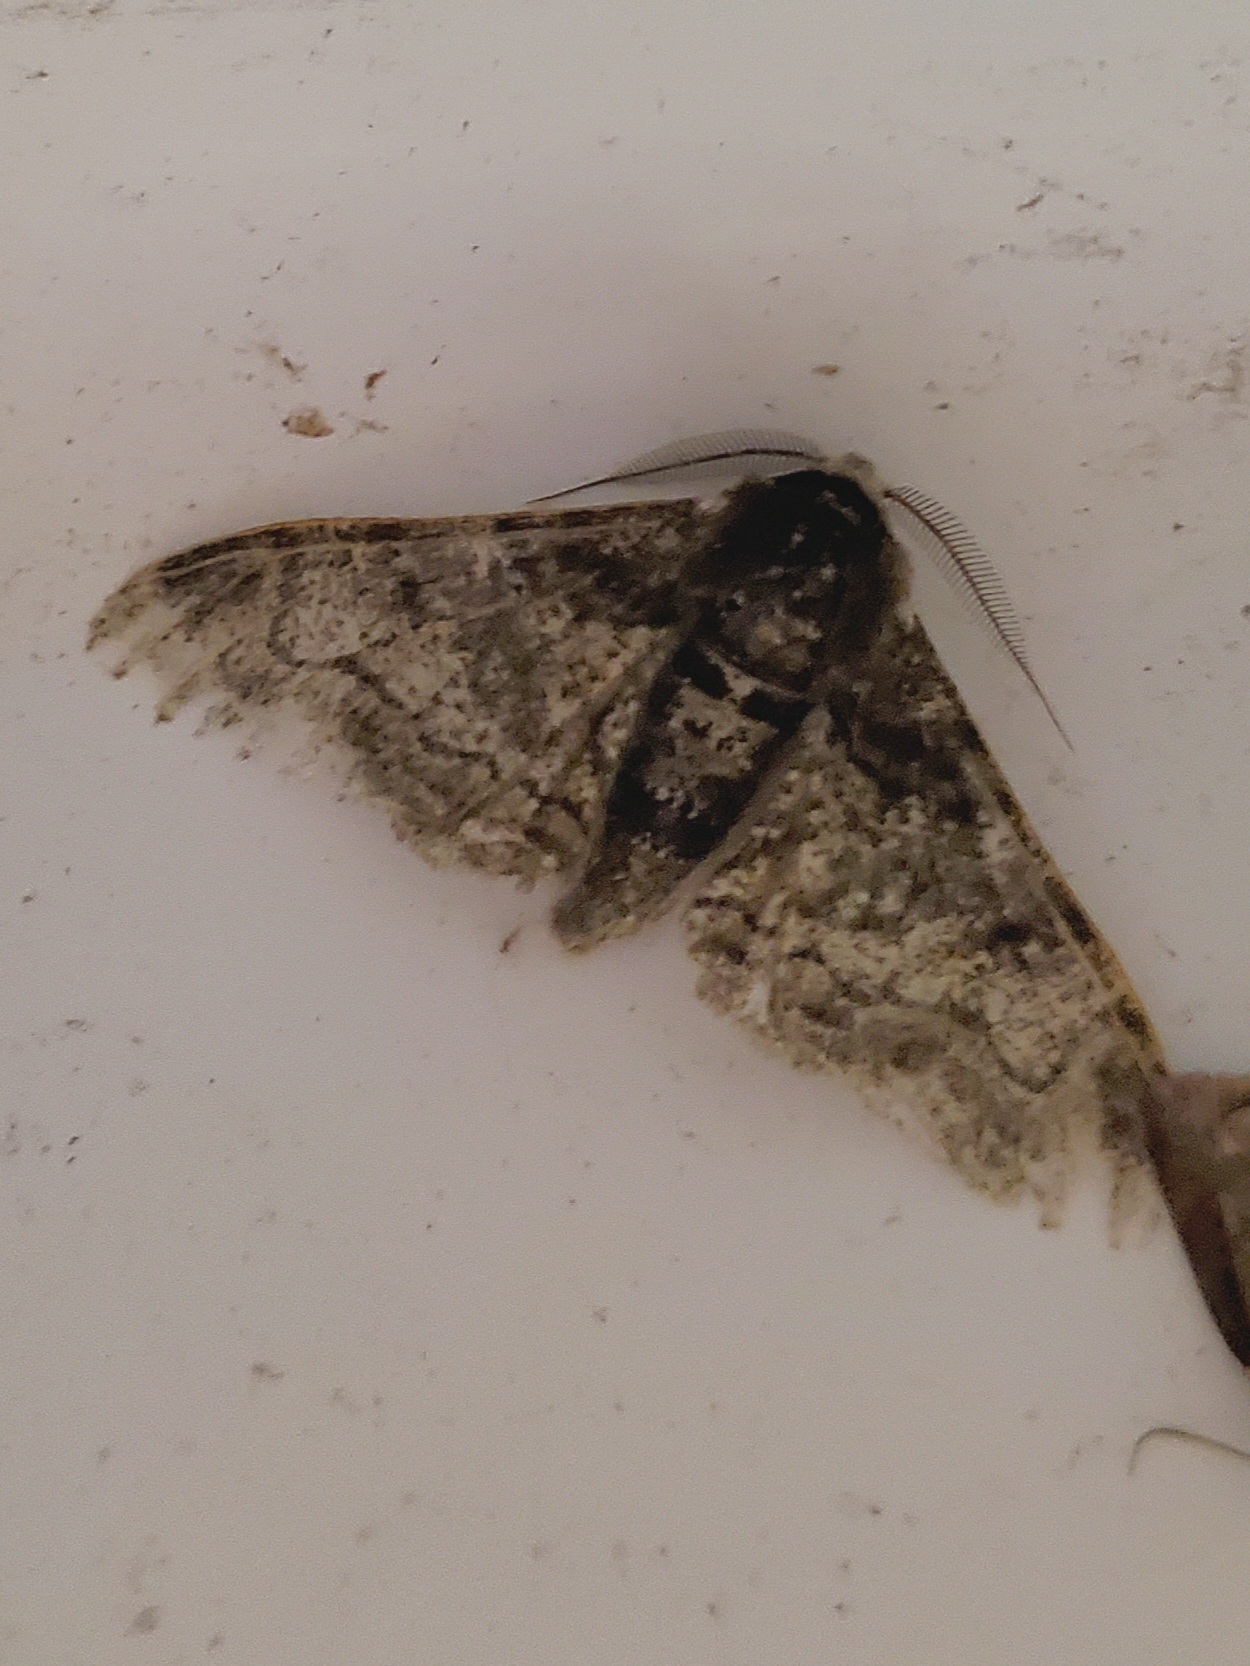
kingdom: Animalia
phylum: Arthropoda
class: Insecta
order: Lepidoptera
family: Geometridae
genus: Biston
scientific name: Biston betularia
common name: Peppered moth
